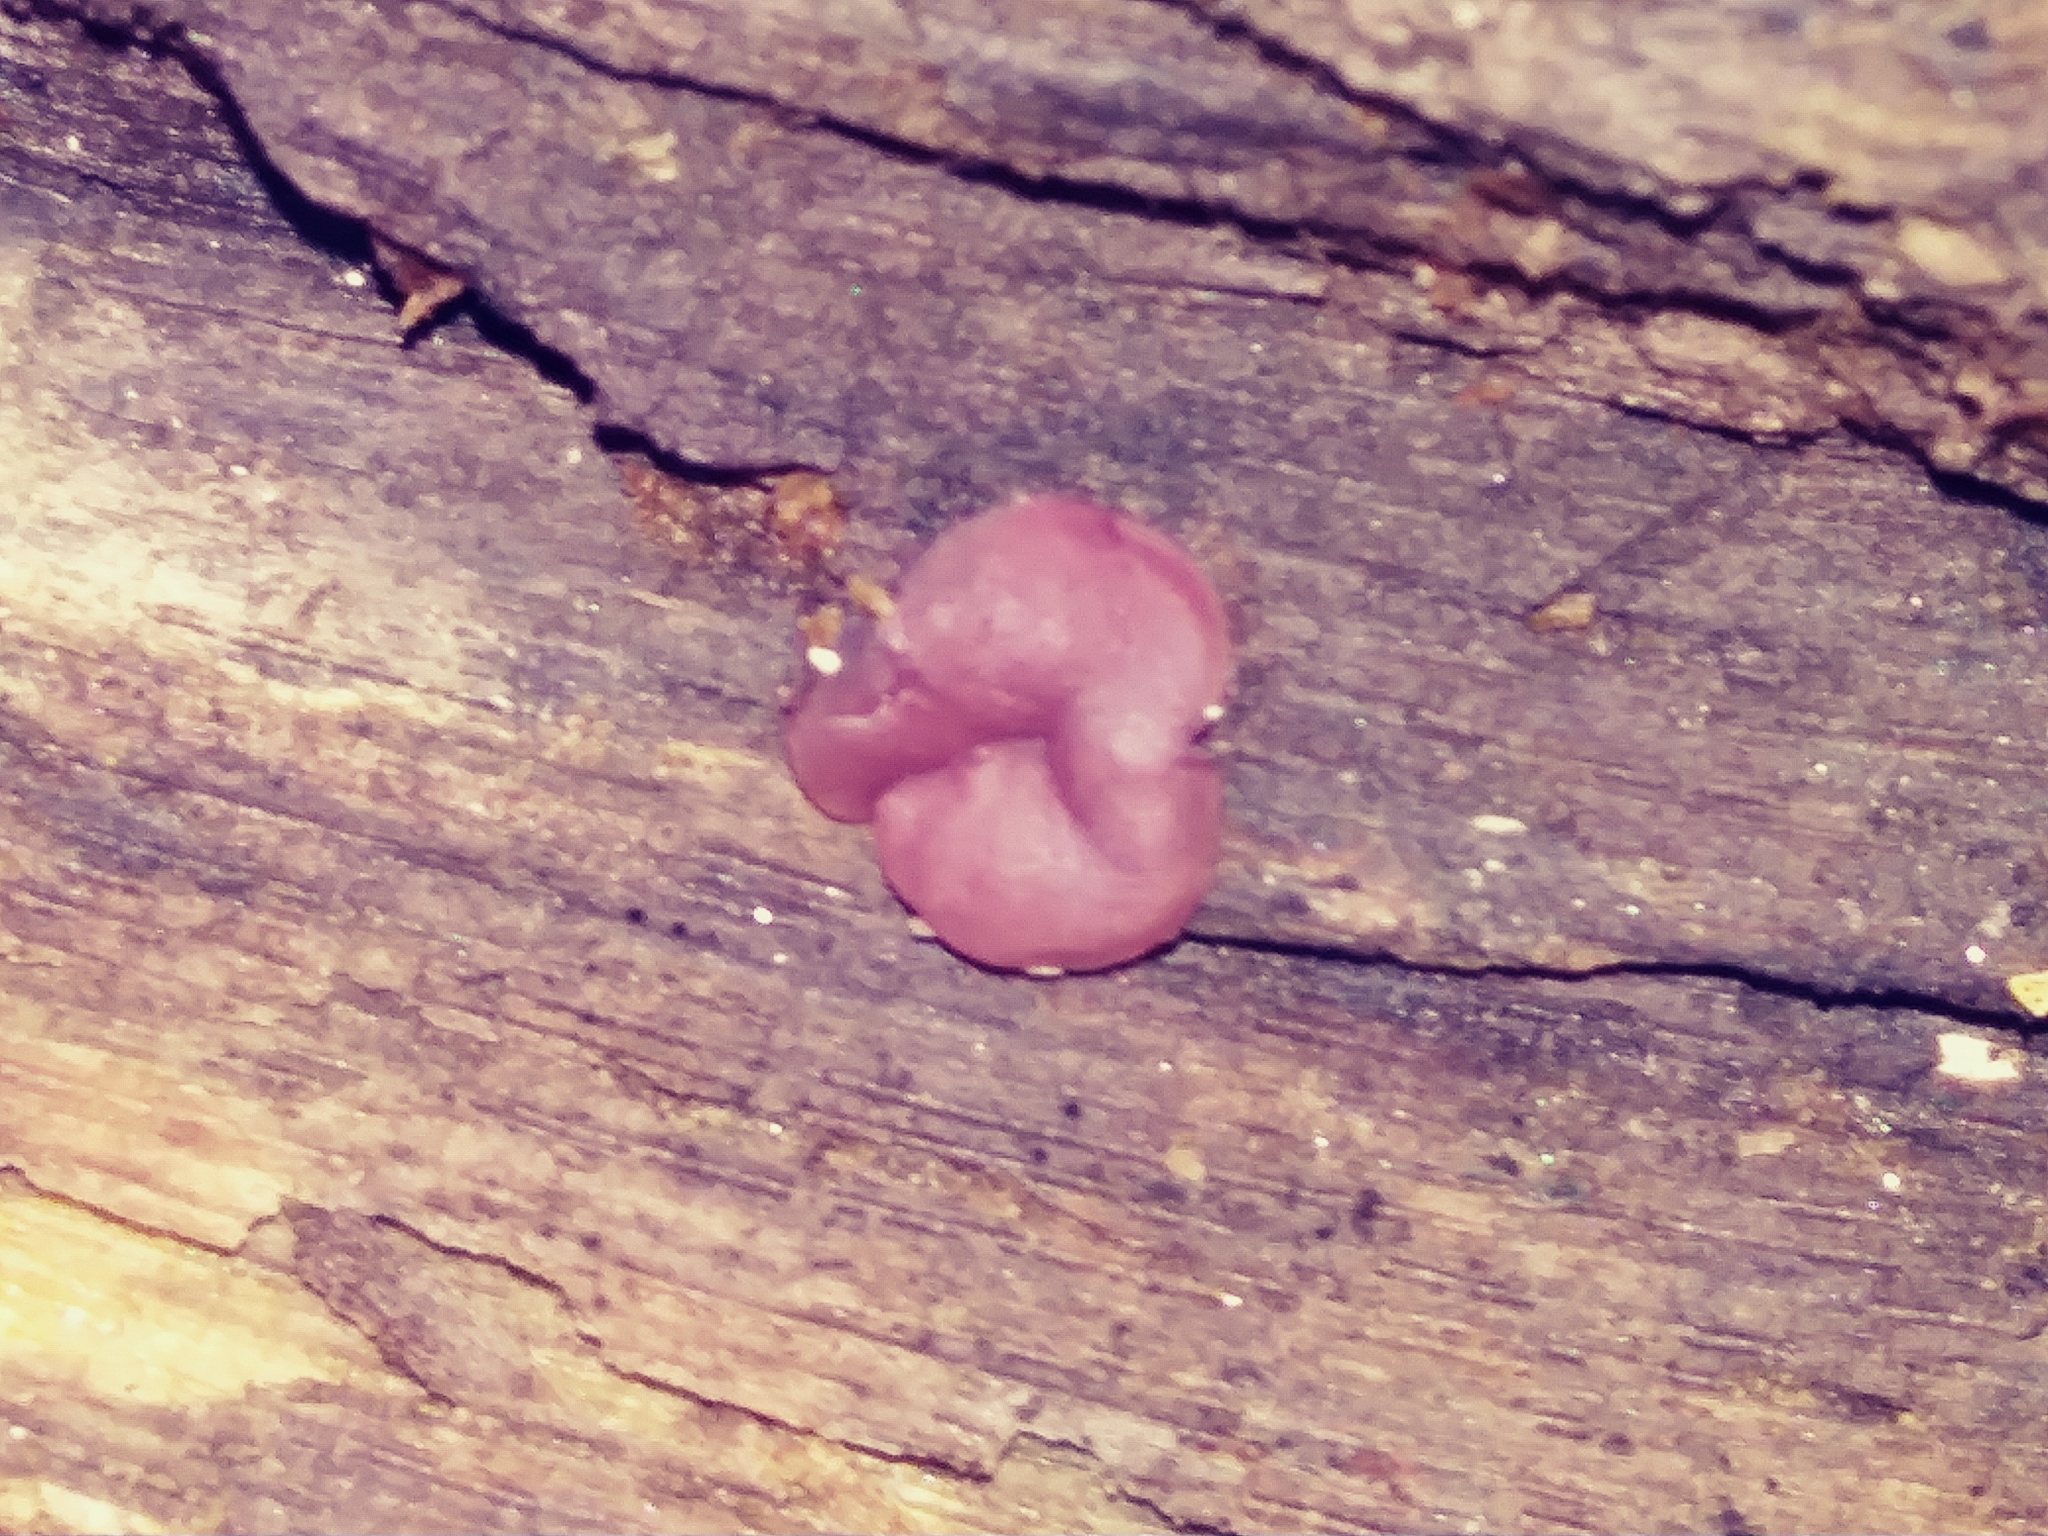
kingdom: Fungi
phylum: Ascomycota
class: Leotiomycetes
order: Helotiales
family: Gelatinodiscaceae
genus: Ascocoryne
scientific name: Ascocoryne sarcoides
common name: Purple jellydisc
